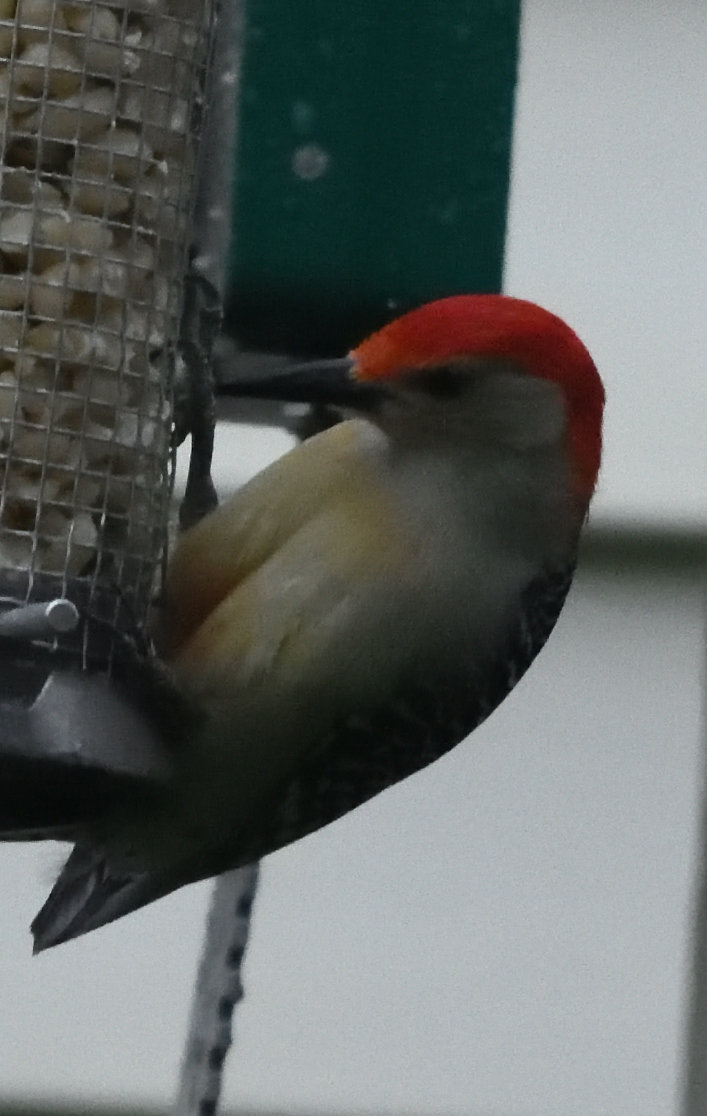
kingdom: Animalia
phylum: Chordata
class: Aves
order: Piciformes
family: Picidae
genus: Melanerpes
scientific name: Melanerpes carolinus
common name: Red-bellied woodpecker
